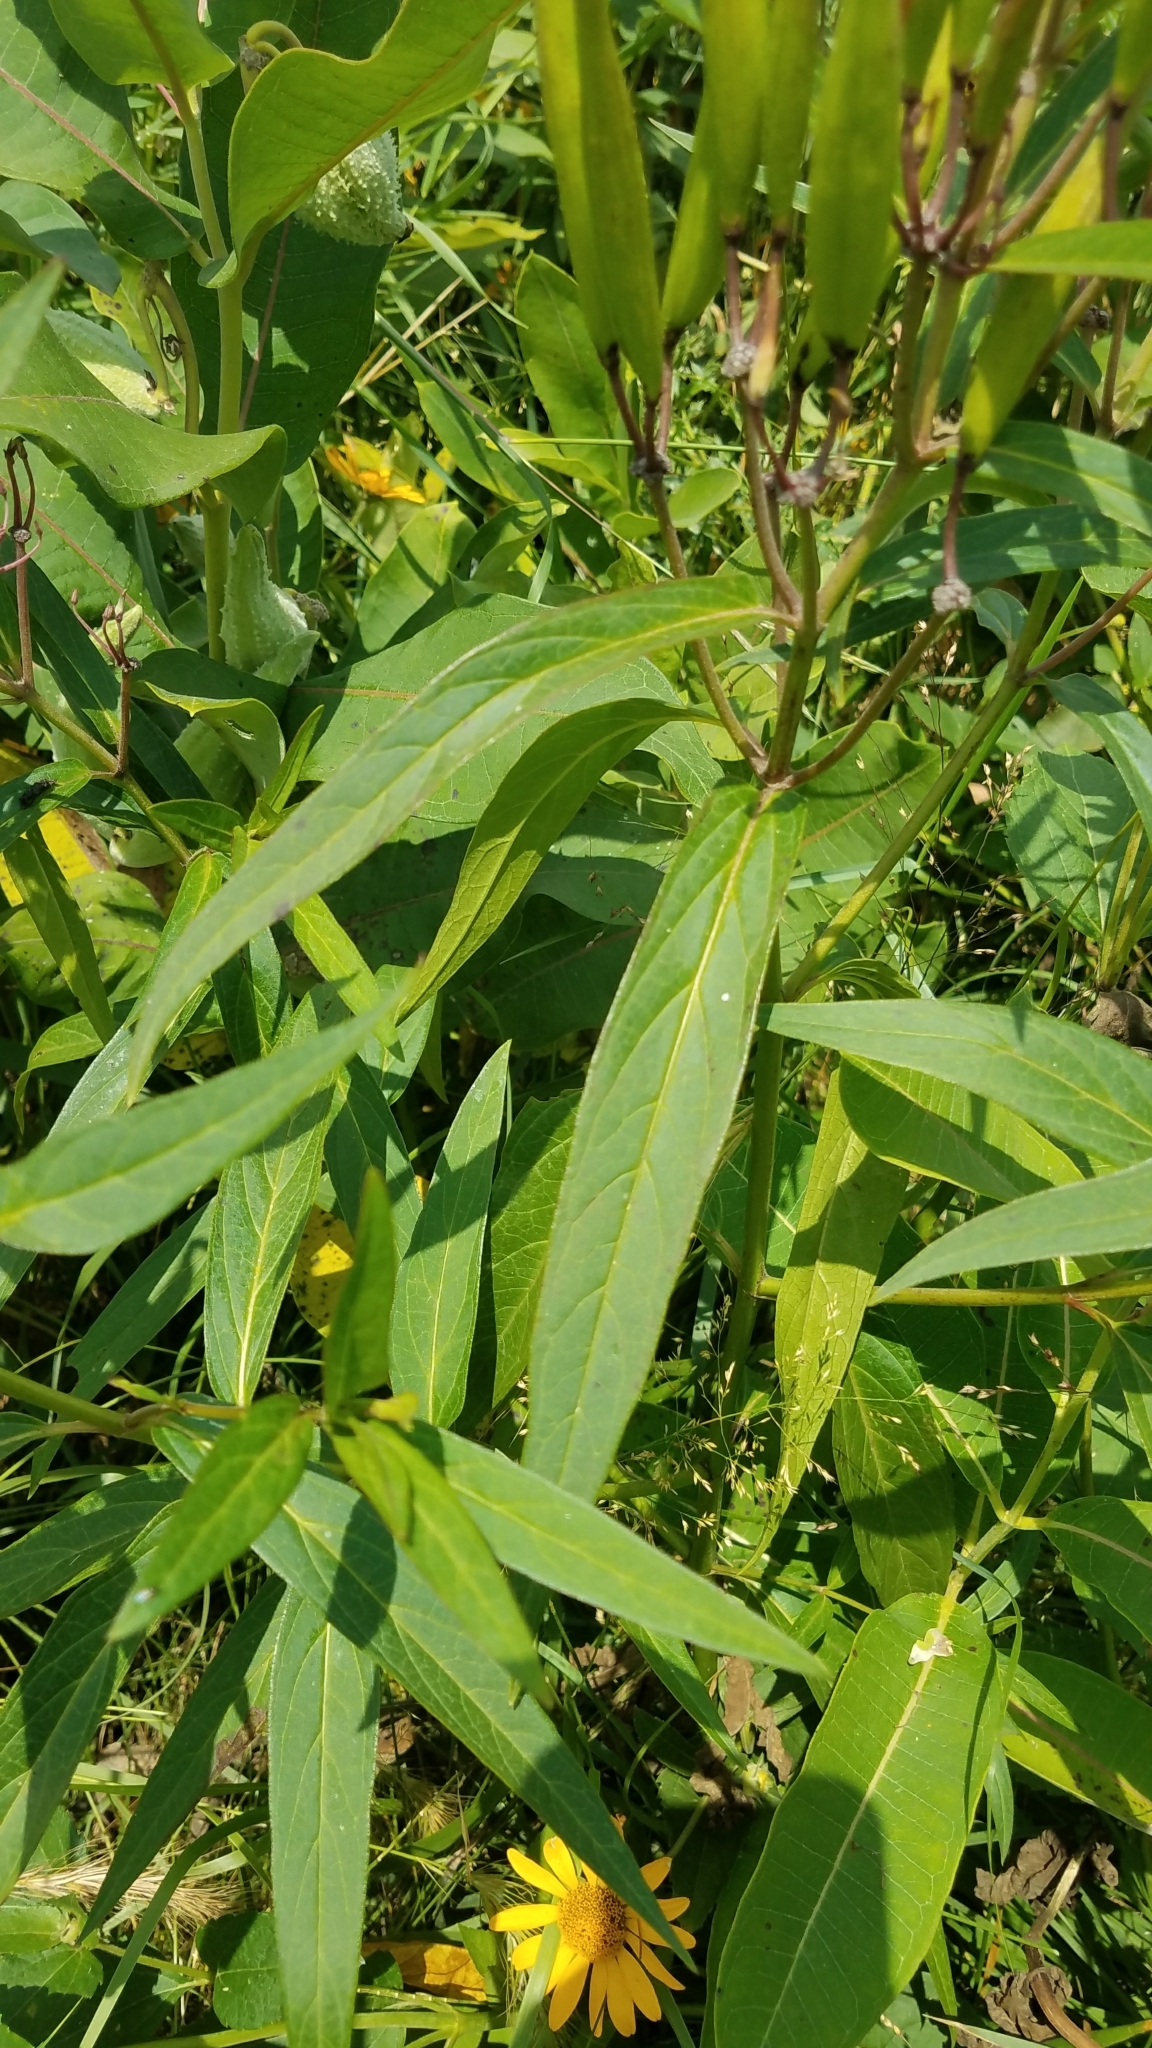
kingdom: Plantae
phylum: Tracheophyta
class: Magnoliopsida
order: Gentianales
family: Apocynaceae
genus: Asclepias
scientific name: Asclepias incarnata
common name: Swamp milkweed
